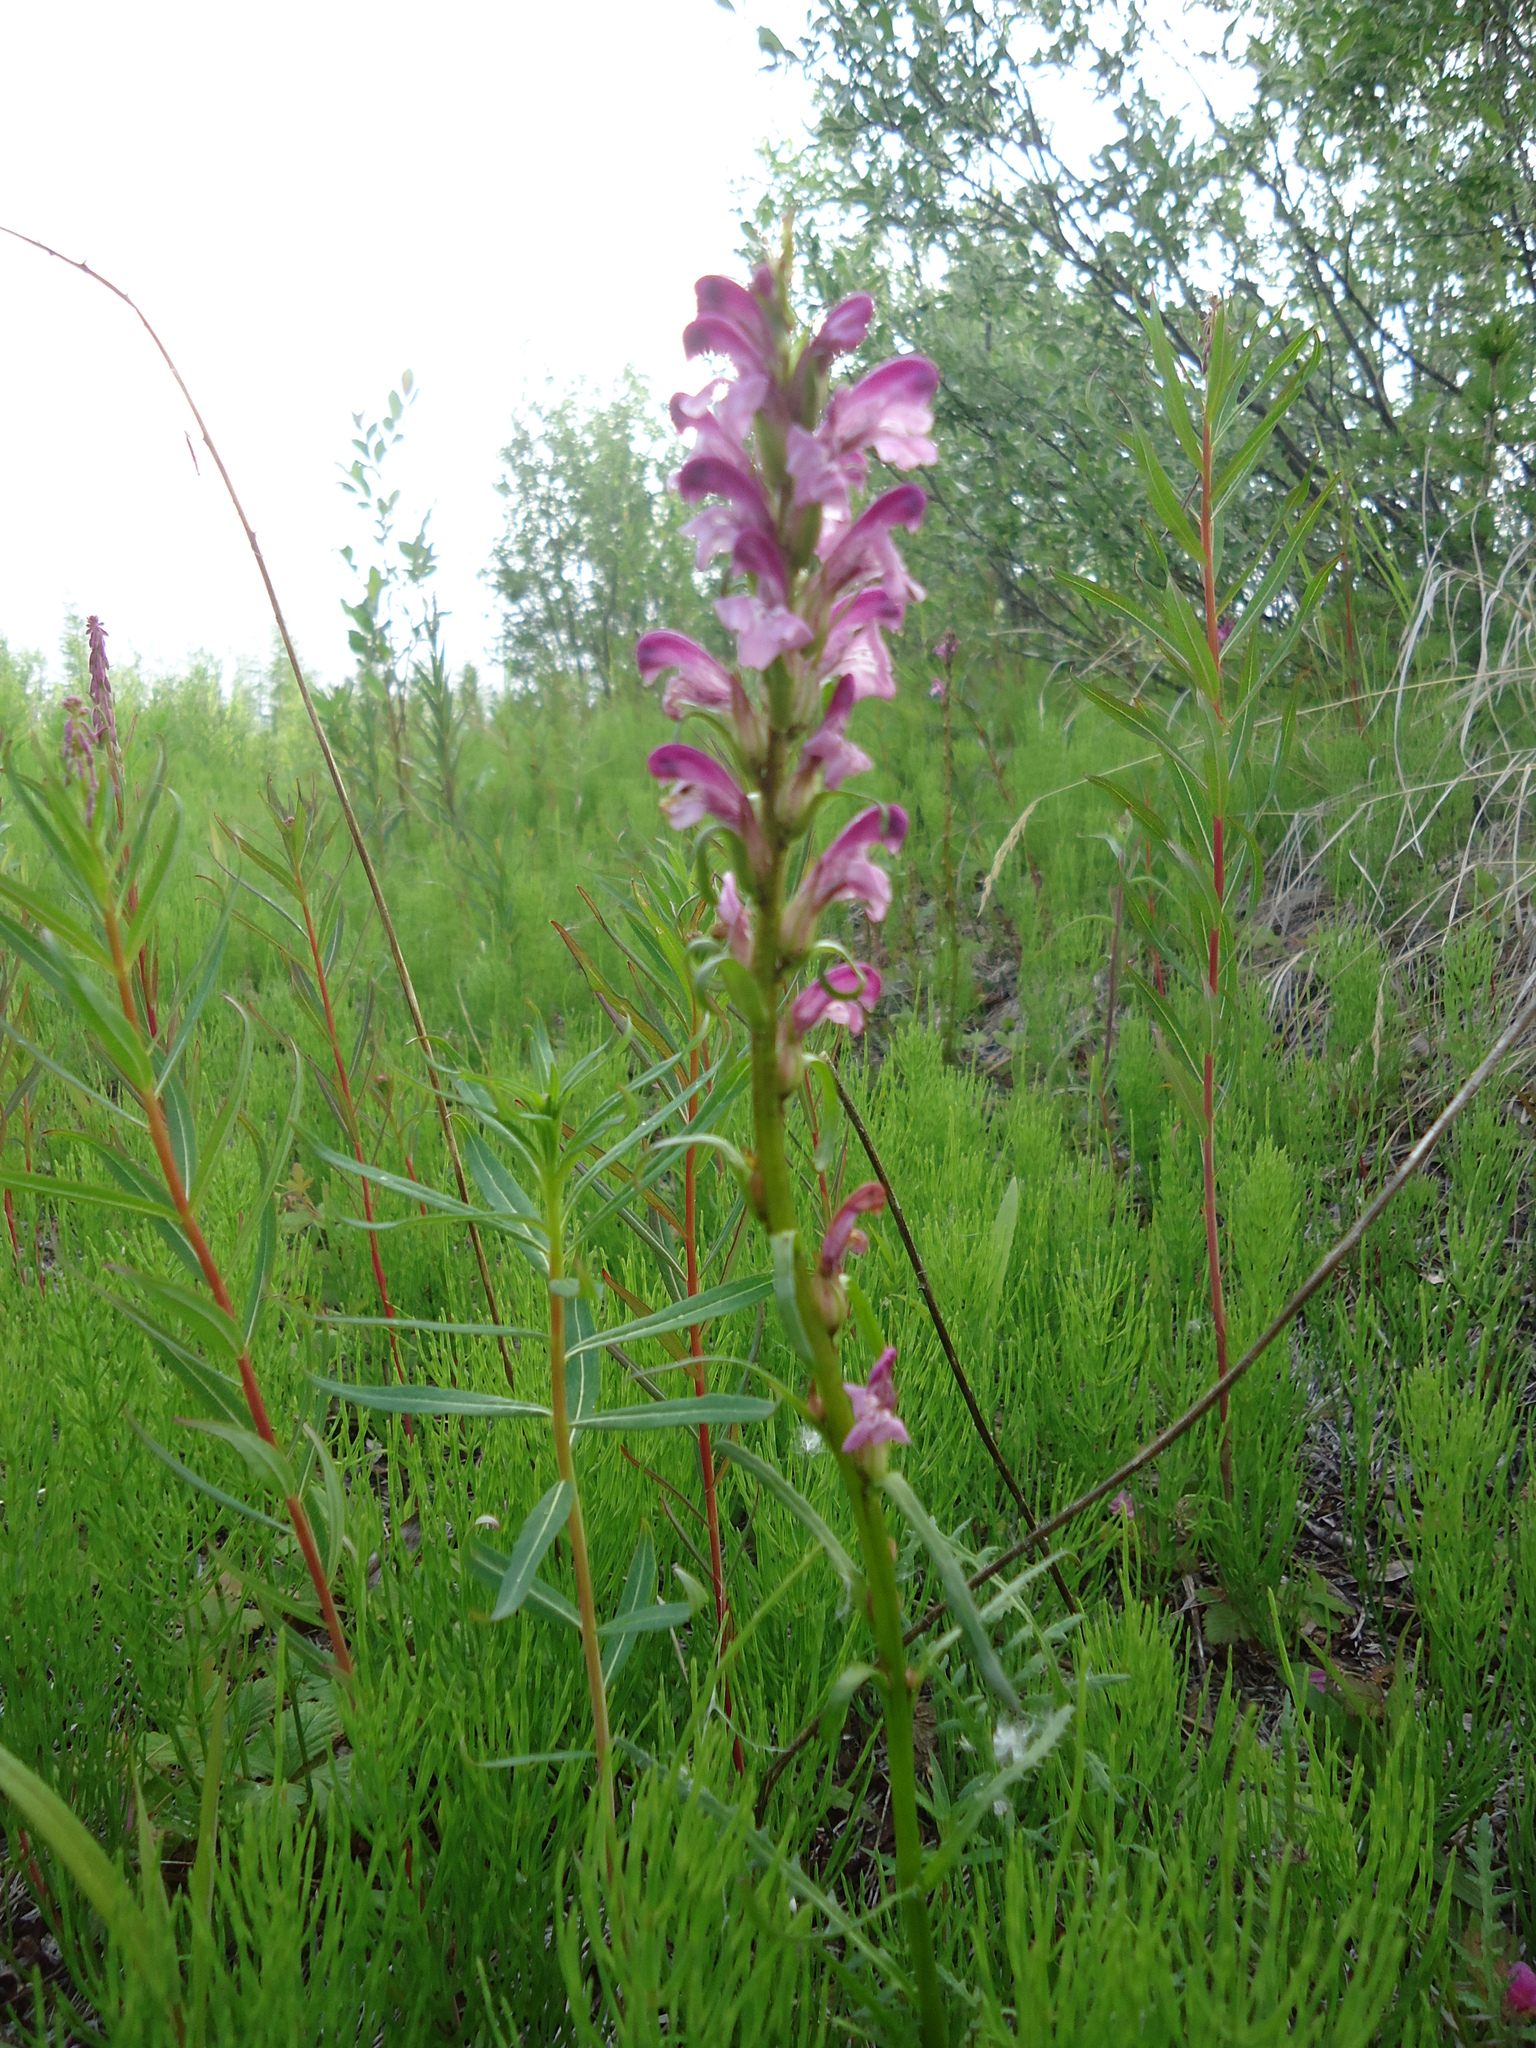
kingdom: Plantae
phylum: Tracheophyta
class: Magnoliopsida
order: Lamiales
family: Orobanchaceae
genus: Pedicularis
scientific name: Pedicularis gymnostachya
